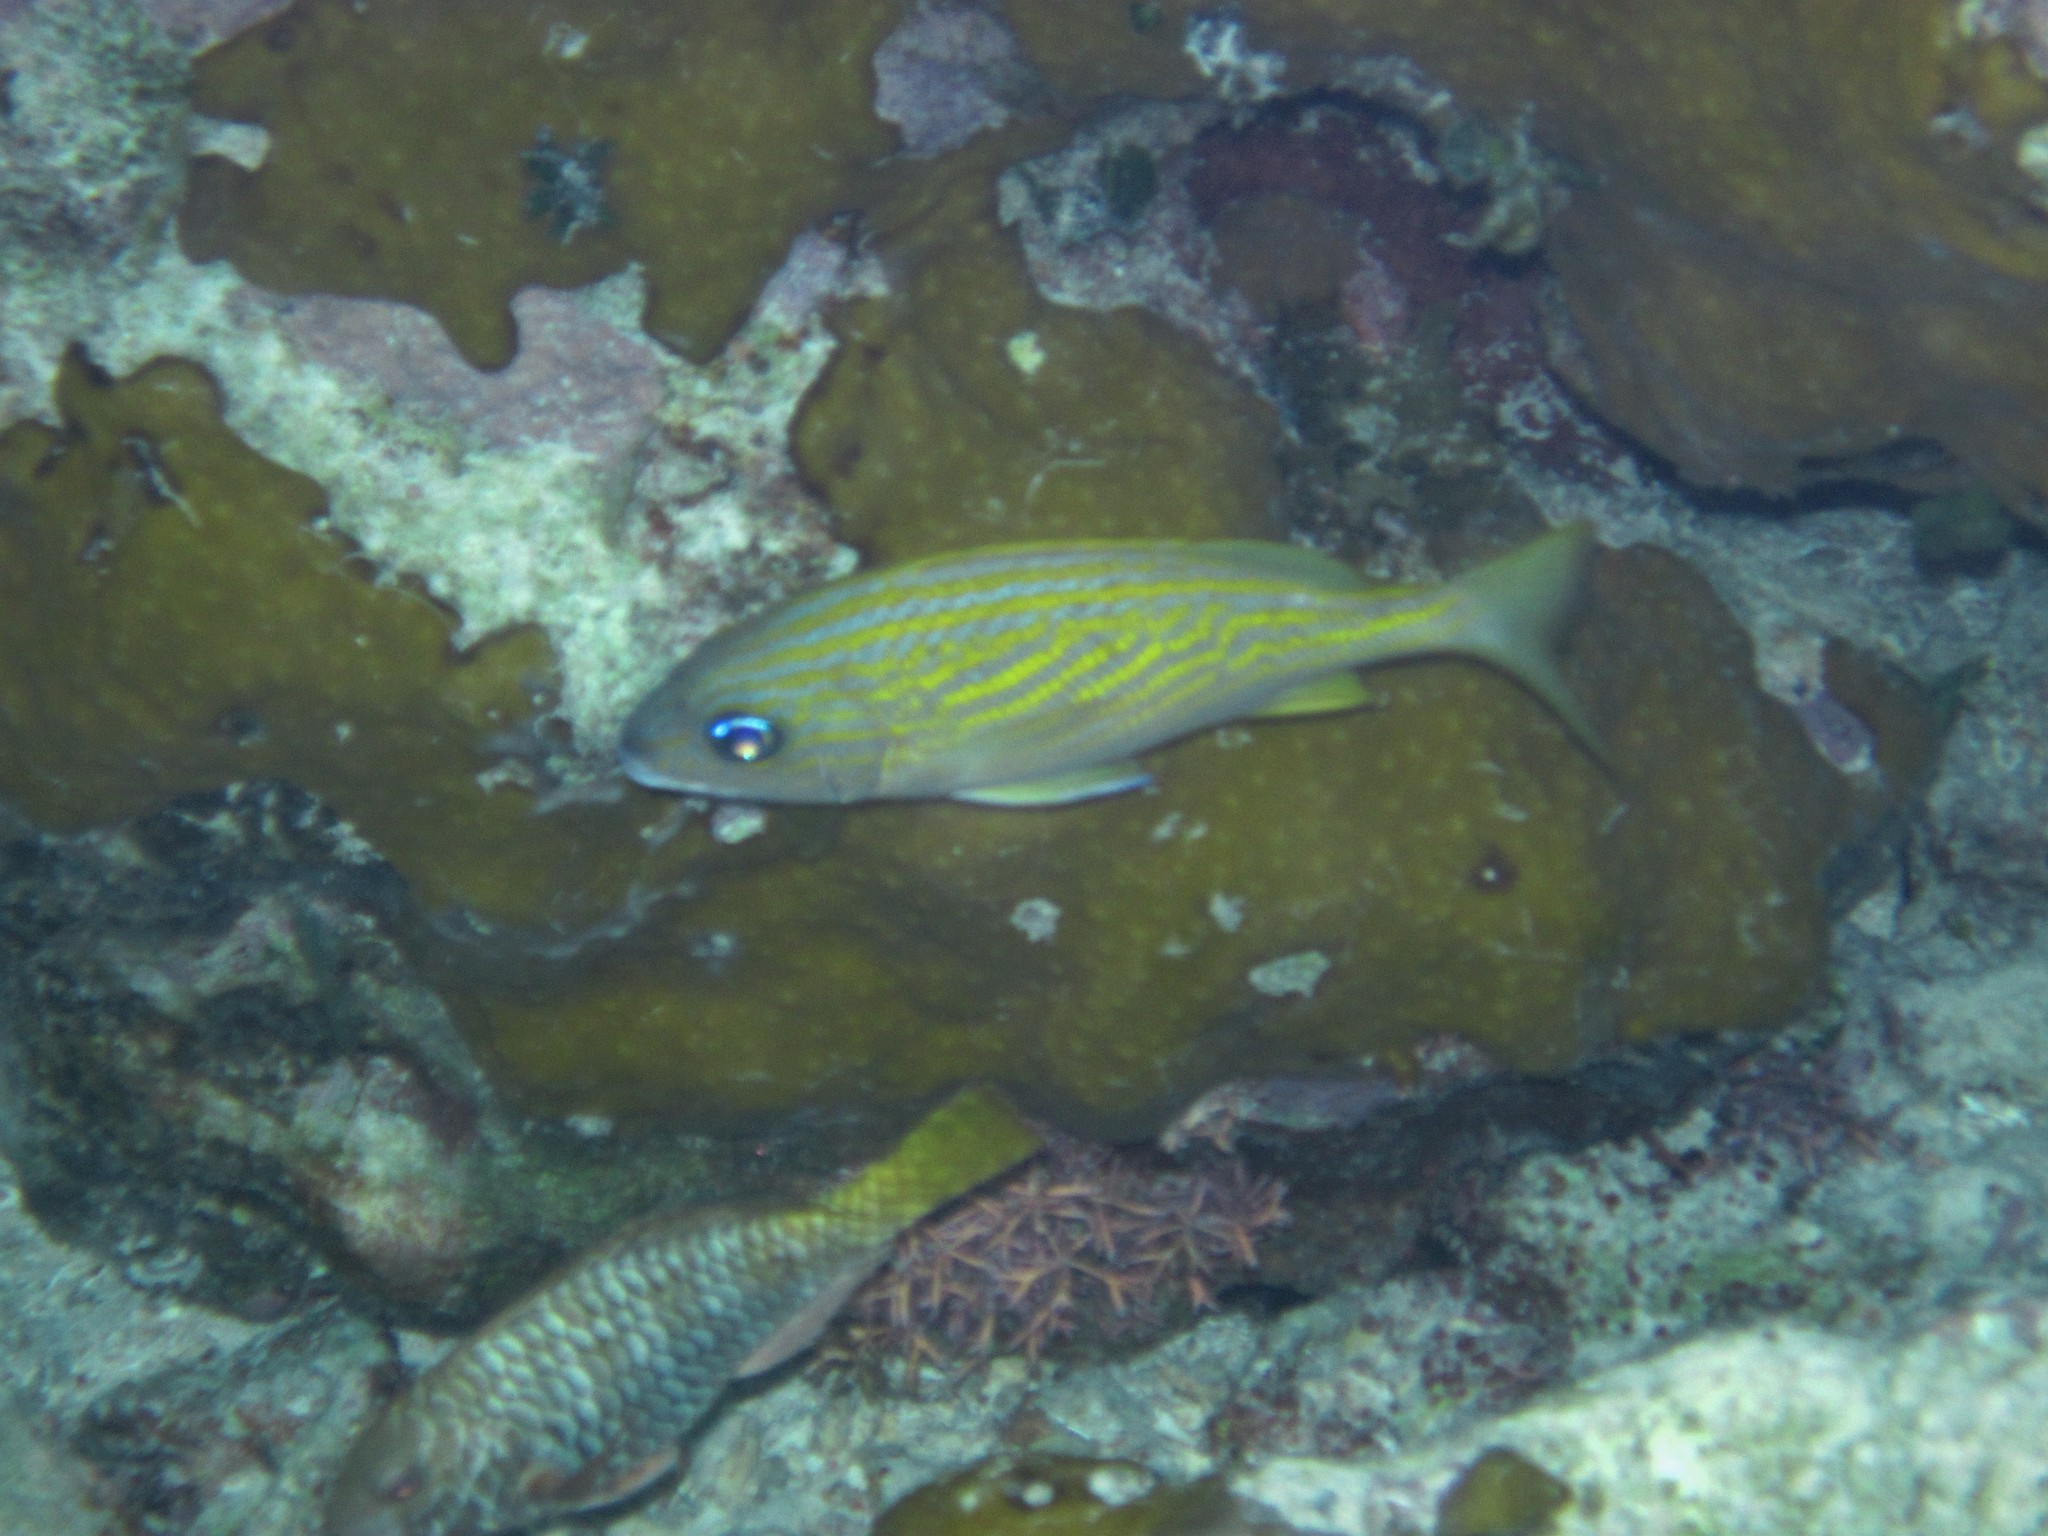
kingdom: Animalia
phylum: Chordata
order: Perciformes
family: Haemulidae
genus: Haemulon
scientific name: Haemulon flavolineatum
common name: French grunt
